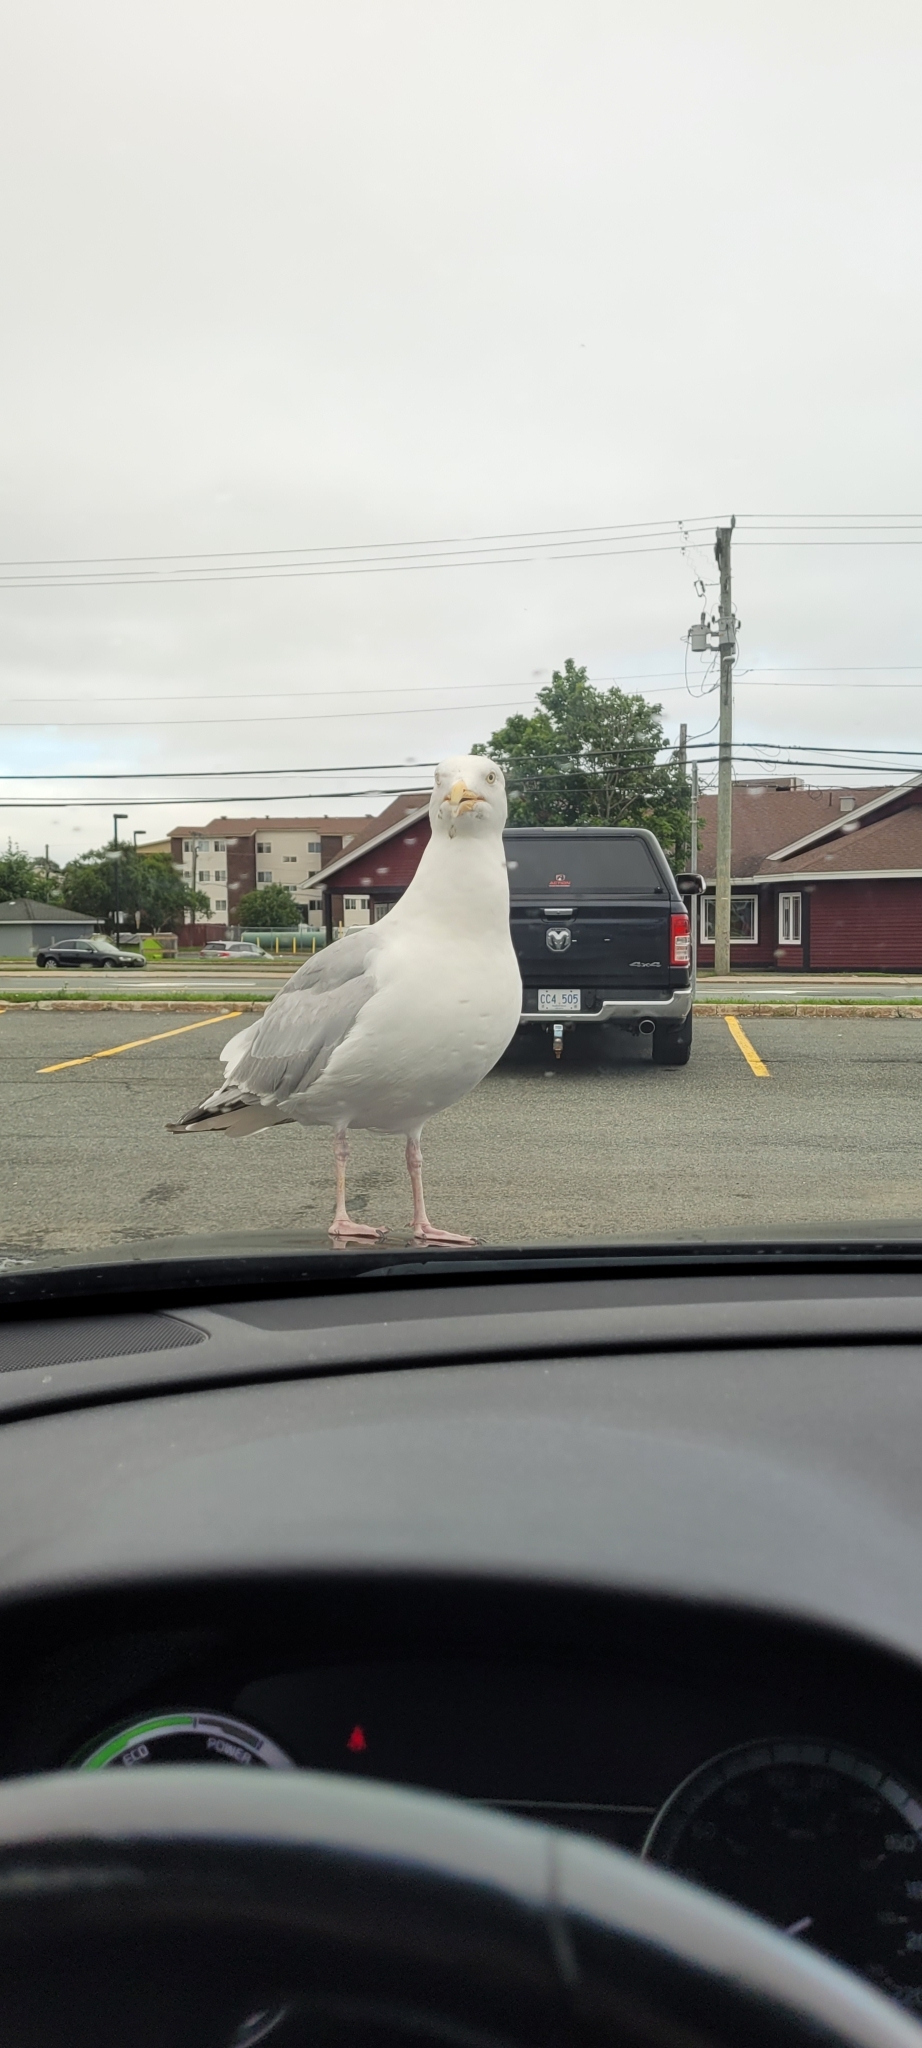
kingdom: Animalia
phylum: Chordata
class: Aves
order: Charadriiformes
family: Laridae
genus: Larus
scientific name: Larus argentatus
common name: Herring gull
